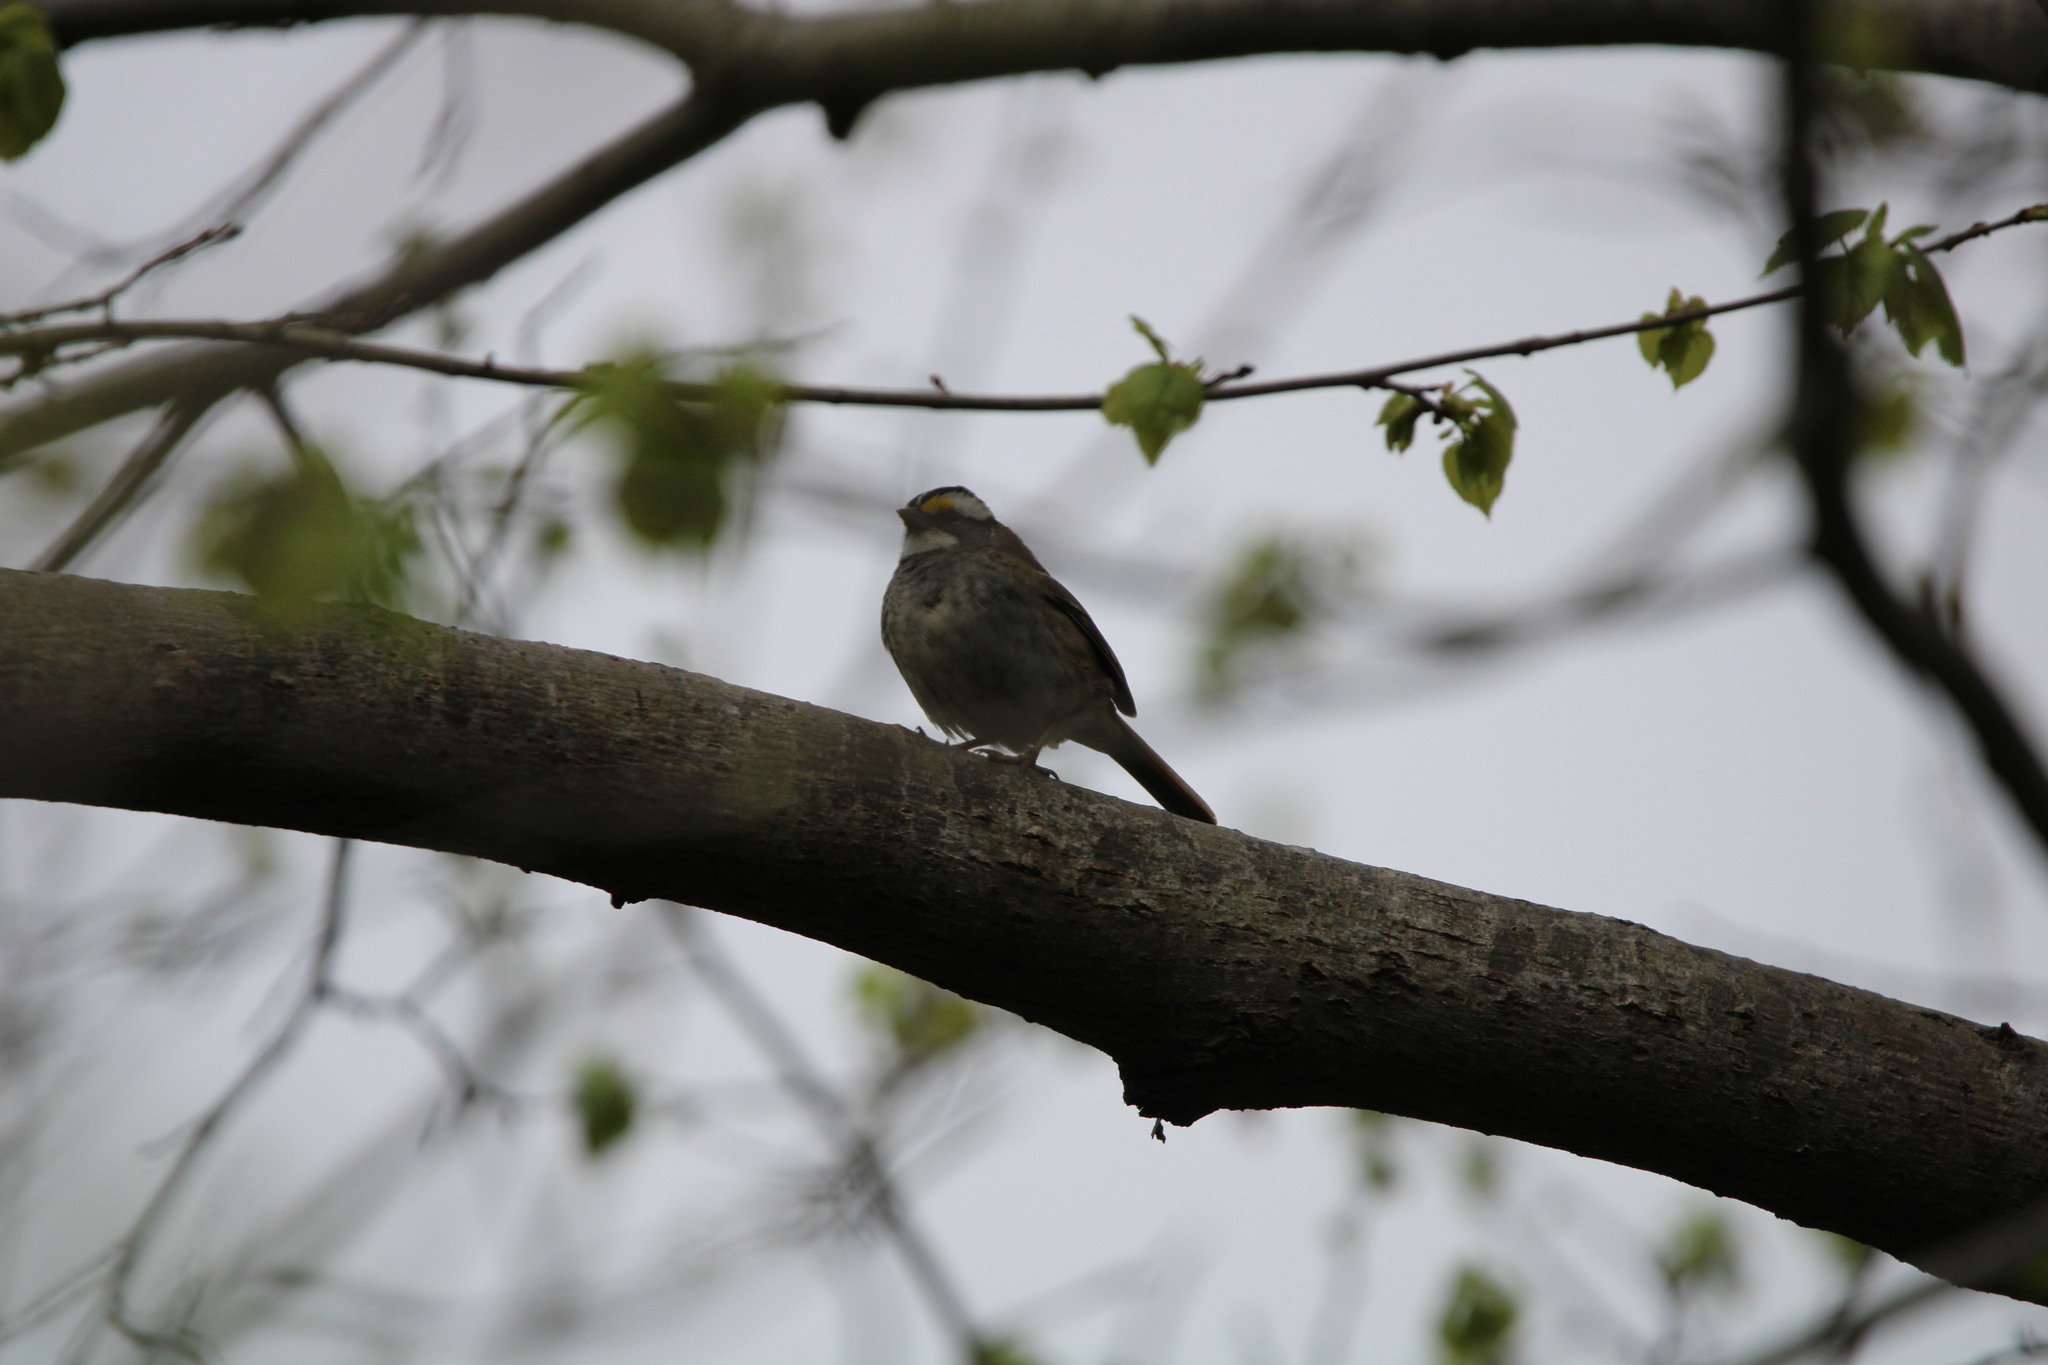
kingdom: Animalia
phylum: Chordata
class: Aves
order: Passeriformes
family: Passerellidae
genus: Zonotrichia
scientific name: Zonotrichia albicollis
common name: White-throated sparrow
